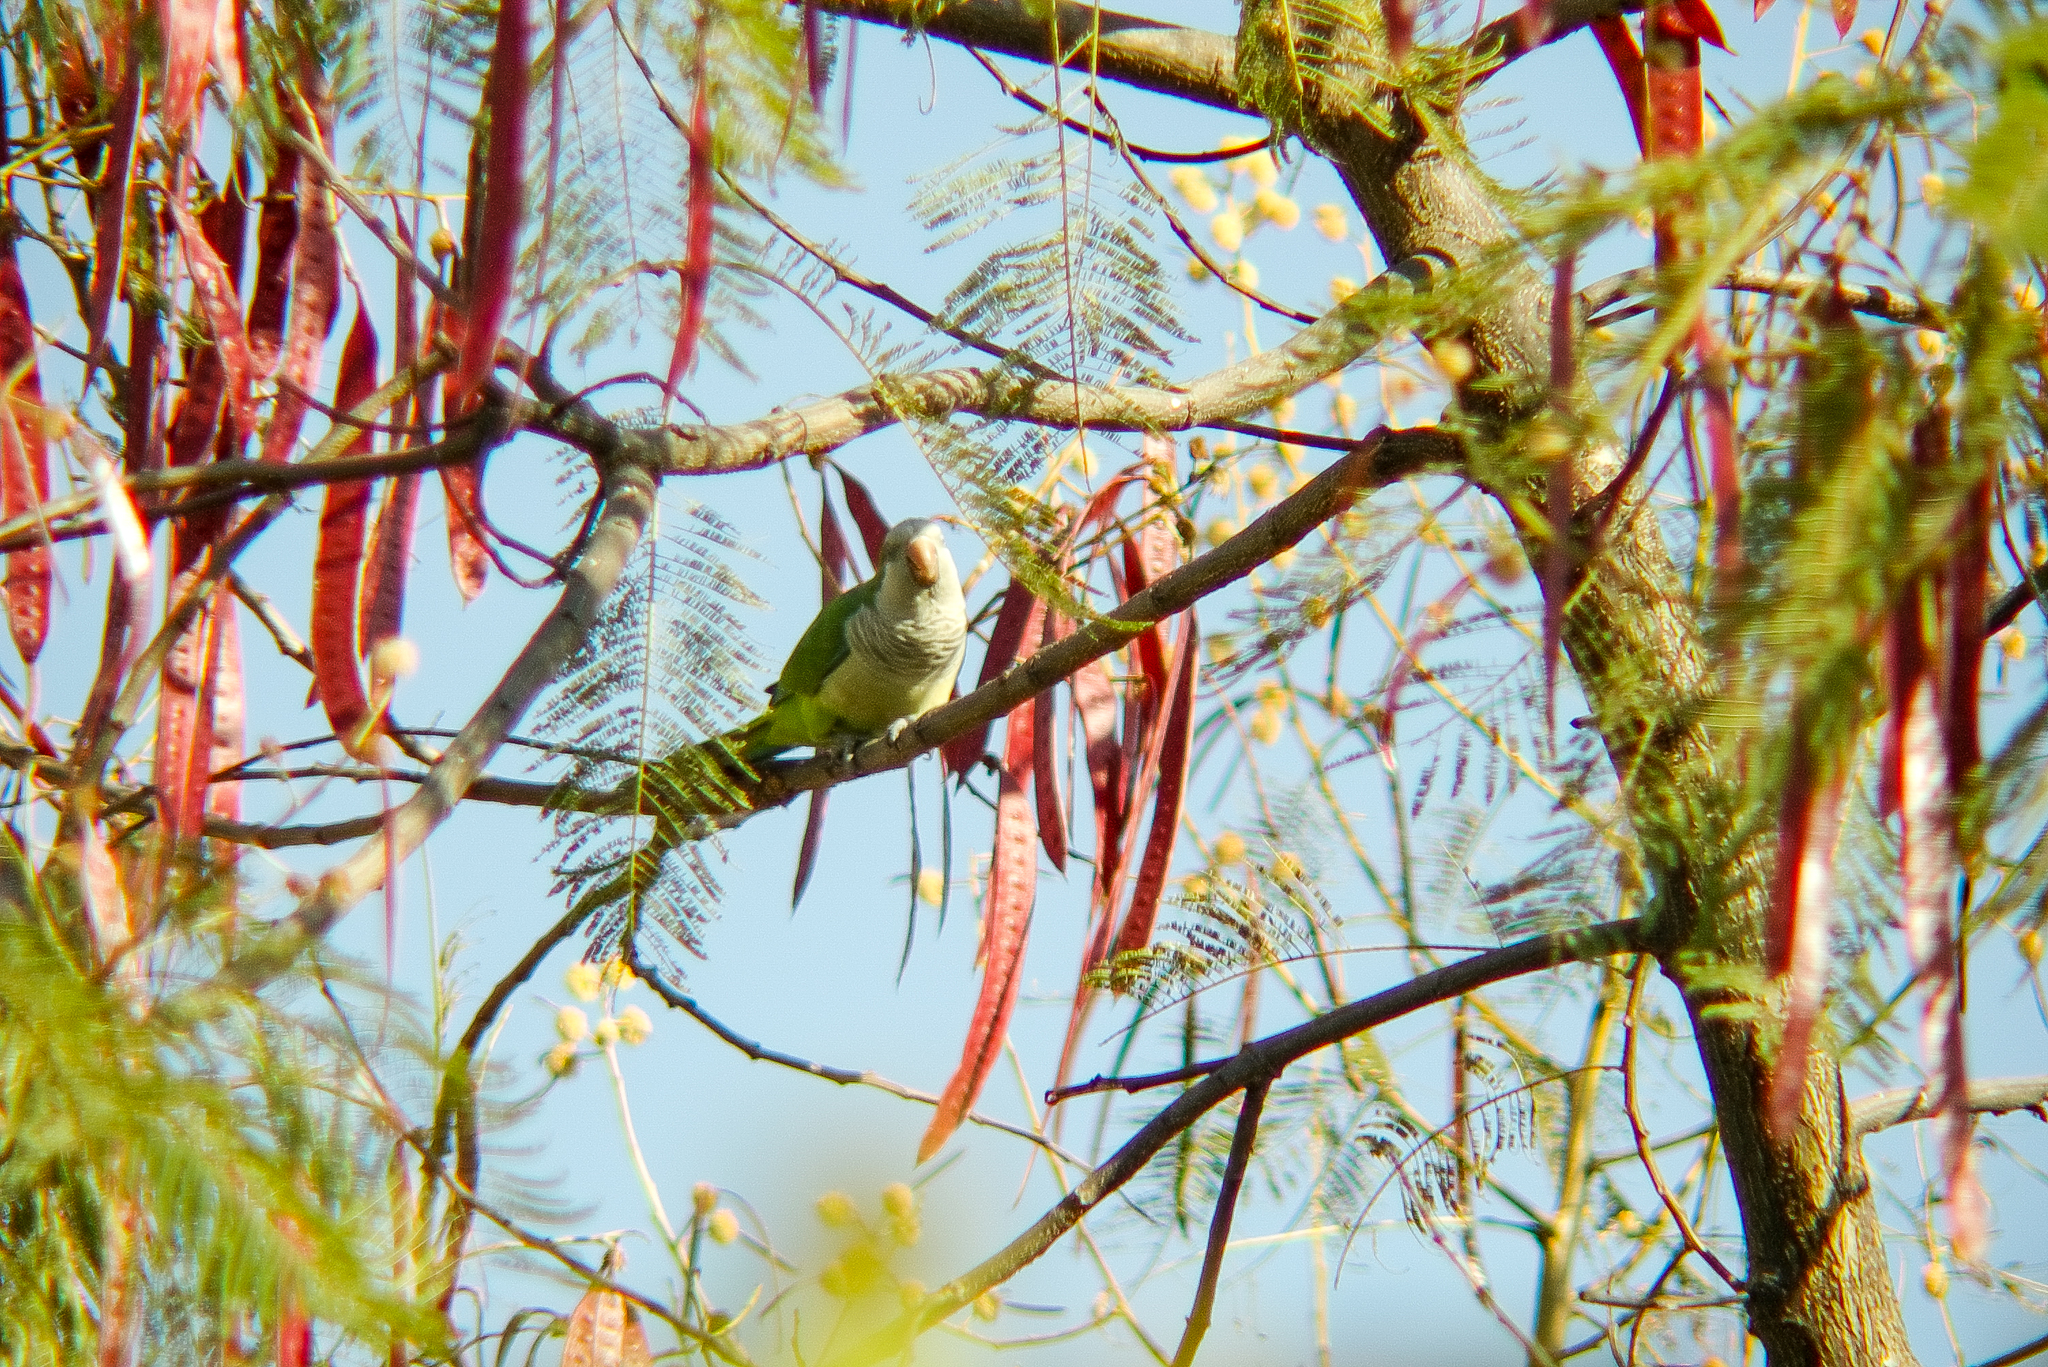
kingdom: Animalia
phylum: Chordata
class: Aves
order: Psittaciformes
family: Psittacidae
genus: Myiopsitta
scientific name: Myiopsitta monachus
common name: Monk parakeet
